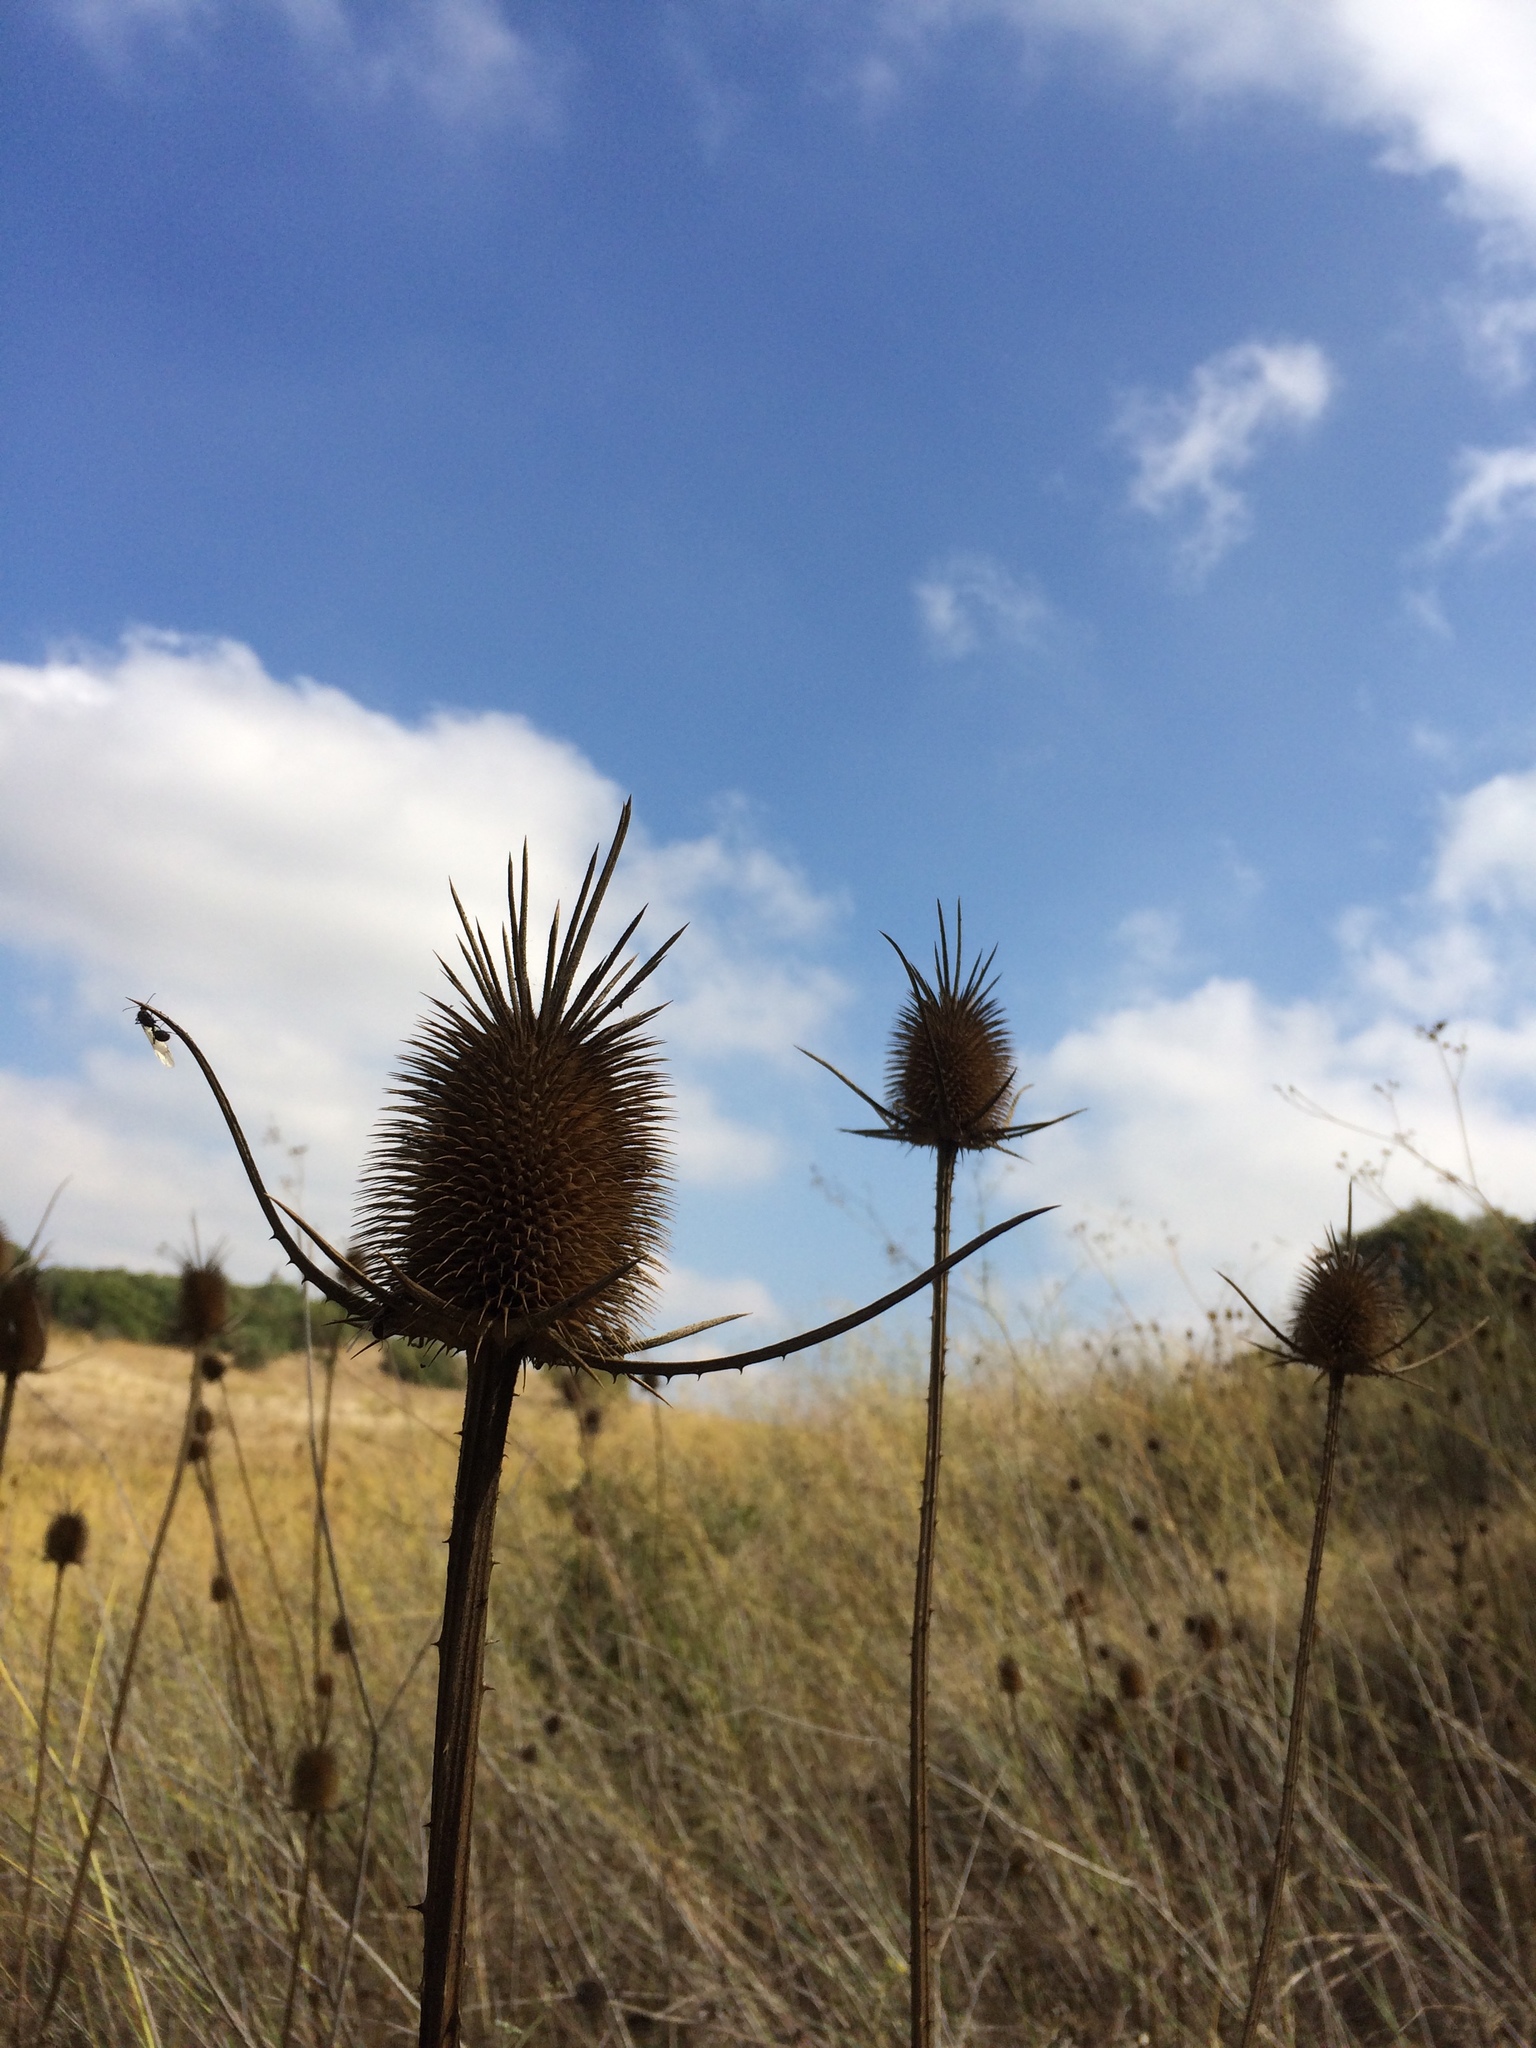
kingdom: Plantae
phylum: Tracheophyta
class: Magnoliopsida
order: Dipsacales
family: Caprifoliaceae
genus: Dipsacus
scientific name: Dipsacus comosus
